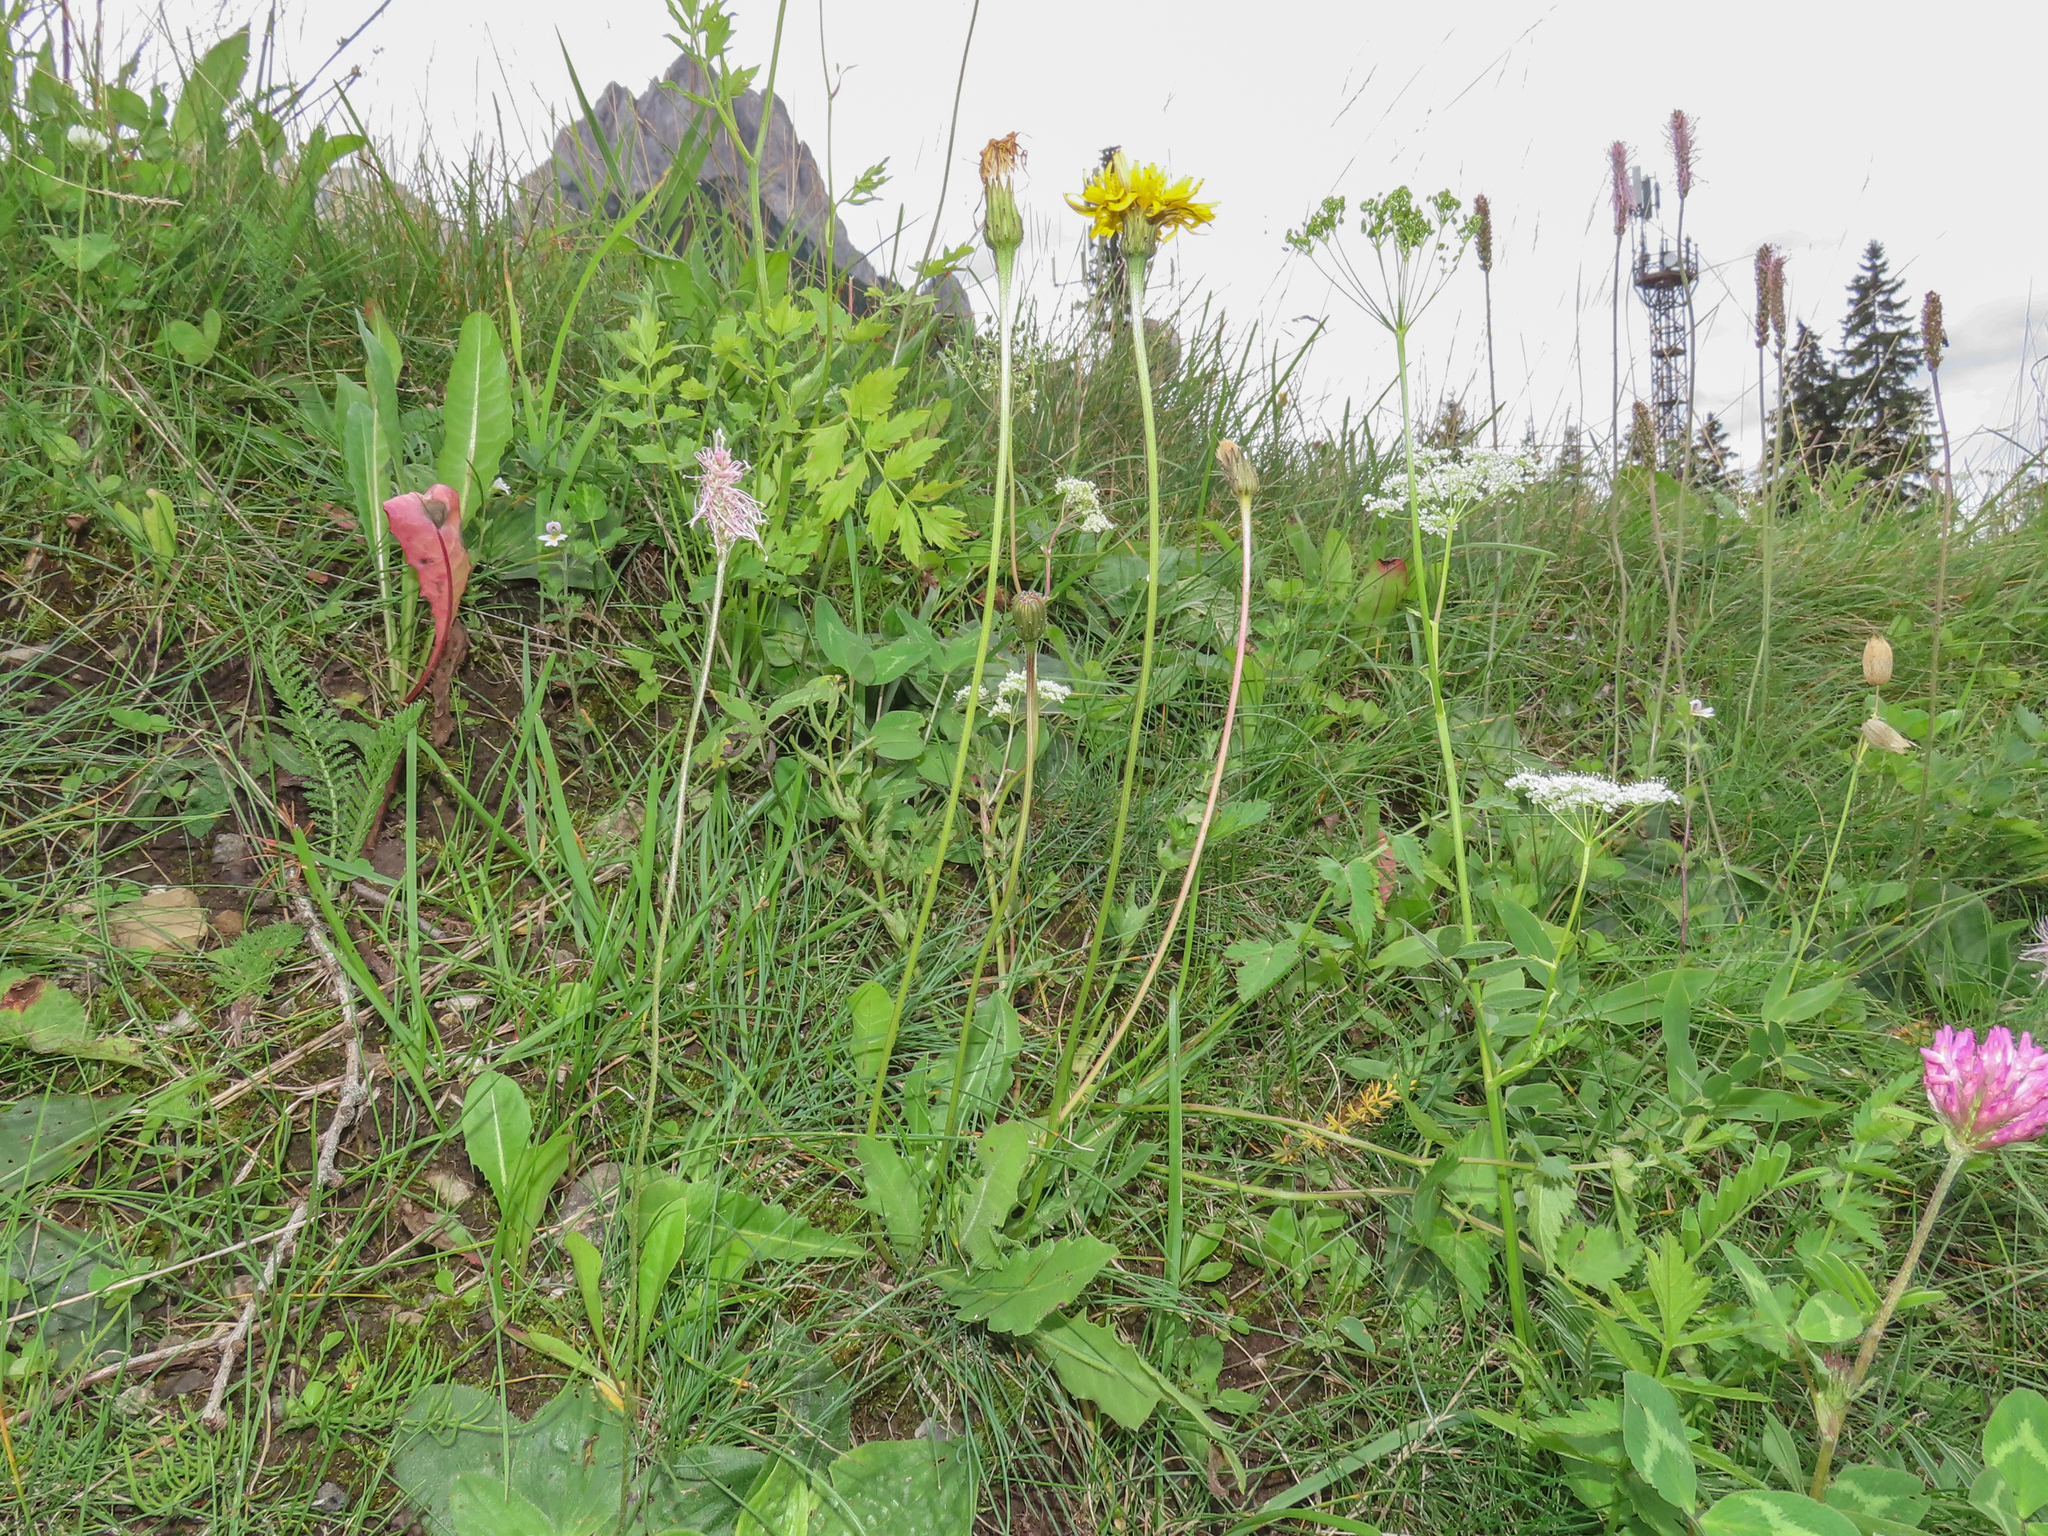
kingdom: Plantae
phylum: Tracheophyta
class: Magnoliopsida
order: Asterales
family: Asteraceae
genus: Leontodon
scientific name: Leontodon hispidus
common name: Rough hawkbit
